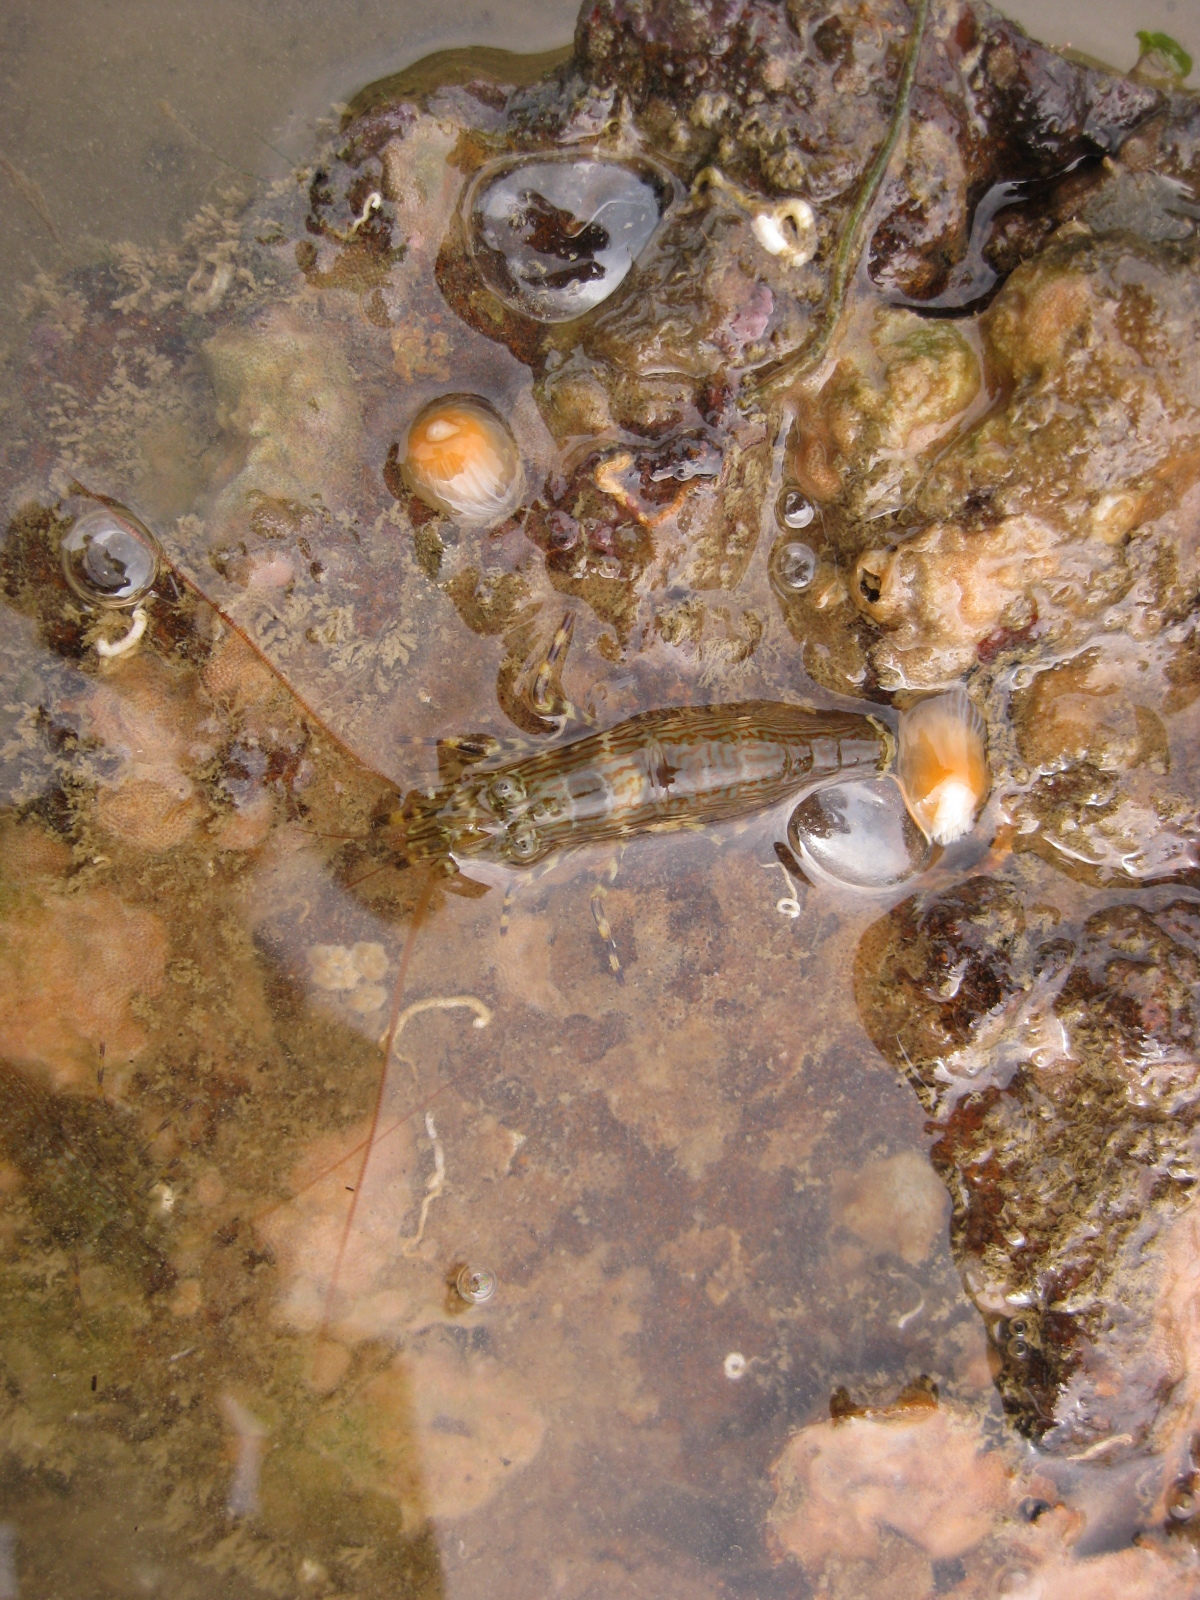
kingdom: Animalia
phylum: Arthropoda
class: Malacostraca
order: Decapoda
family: Hippolytidae
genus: Alope
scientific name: Alope spinifrons
